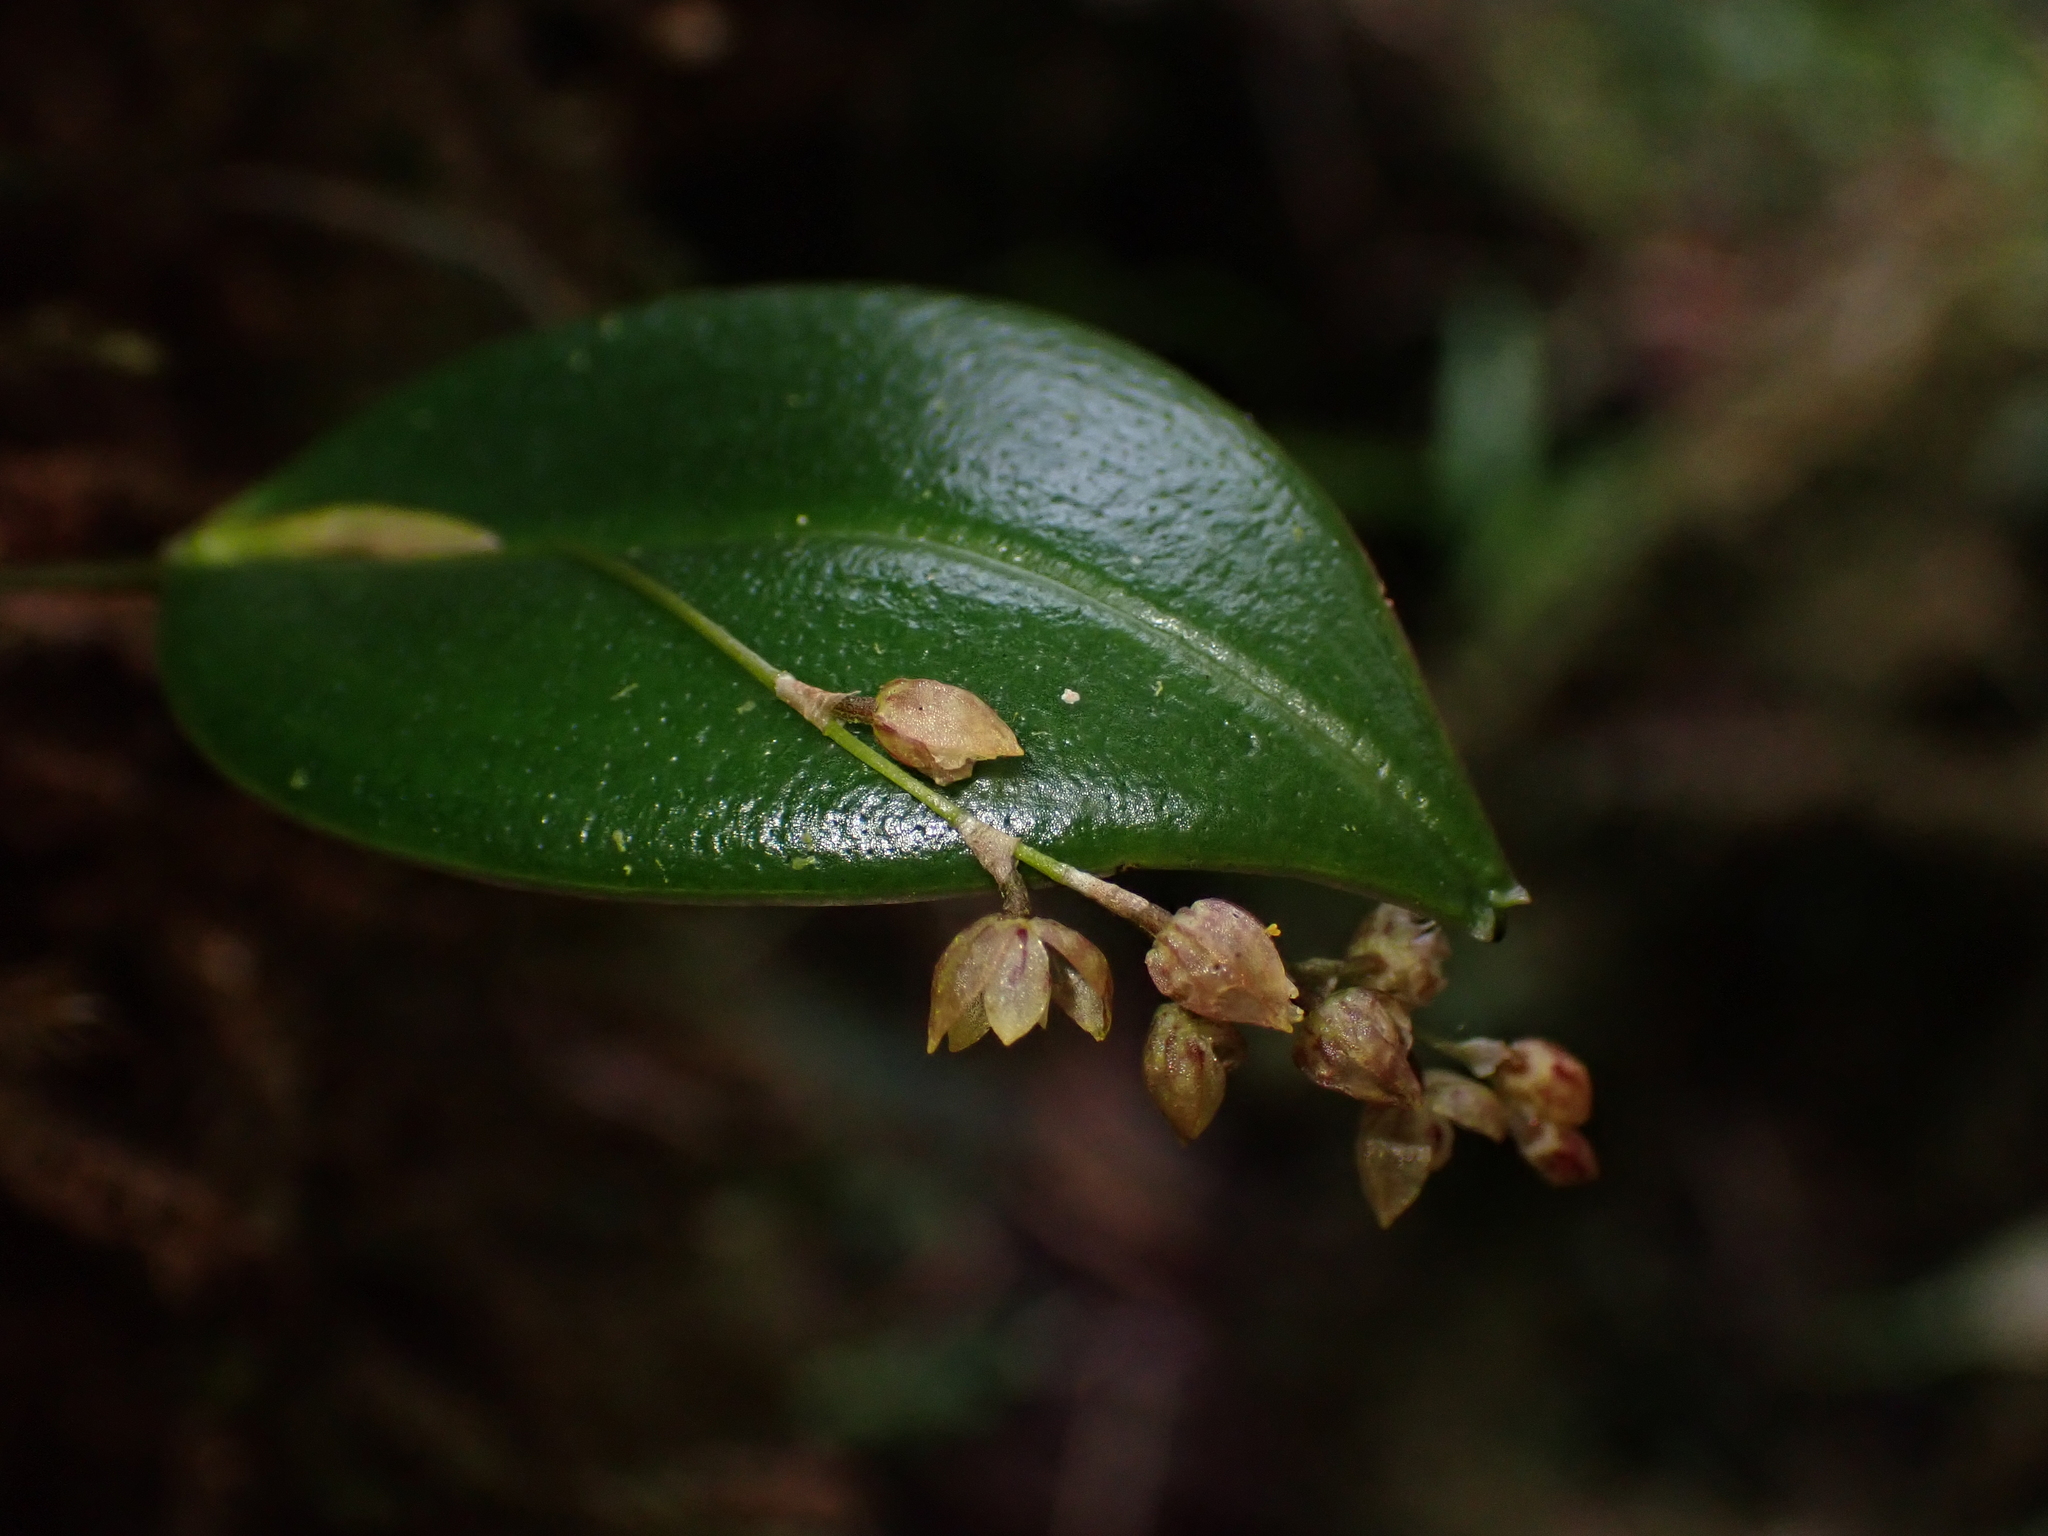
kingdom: Plantae
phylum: Tracheophyta
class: Liliopsida
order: Asparagales
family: Orchidaceae
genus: Pleurothallis
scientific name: Pleurothallis leopardina
